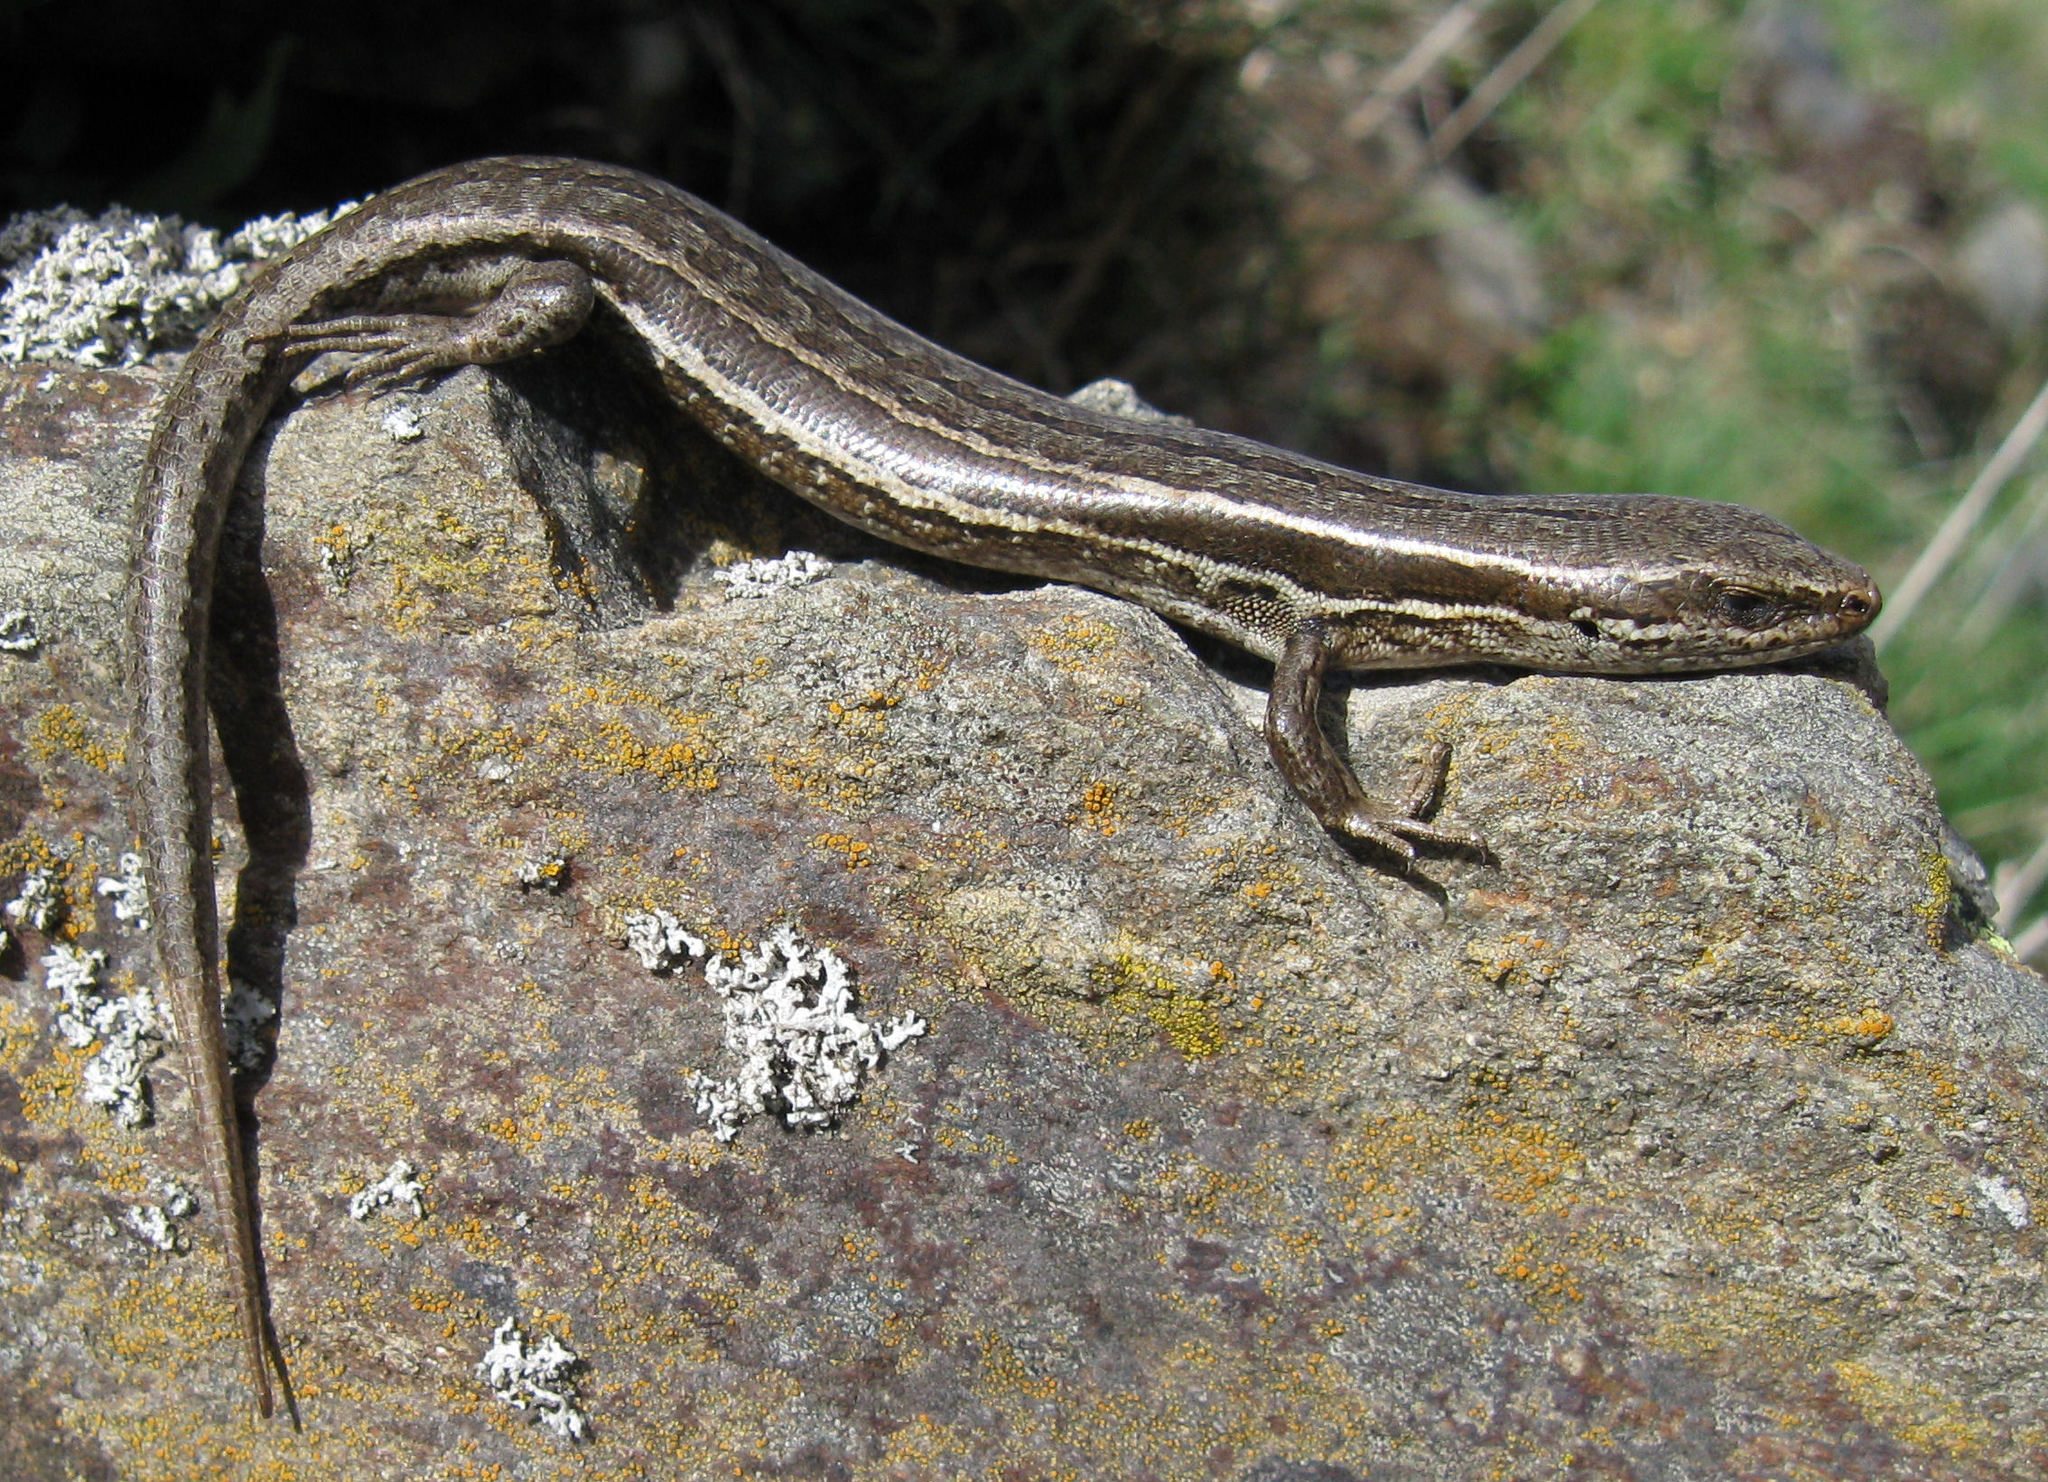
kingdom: Animalia
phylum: Chordata
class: Squamata
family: Scincidae
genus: Oligosoma
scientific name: Oligosoma maccanni
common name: Mccann’s skink
